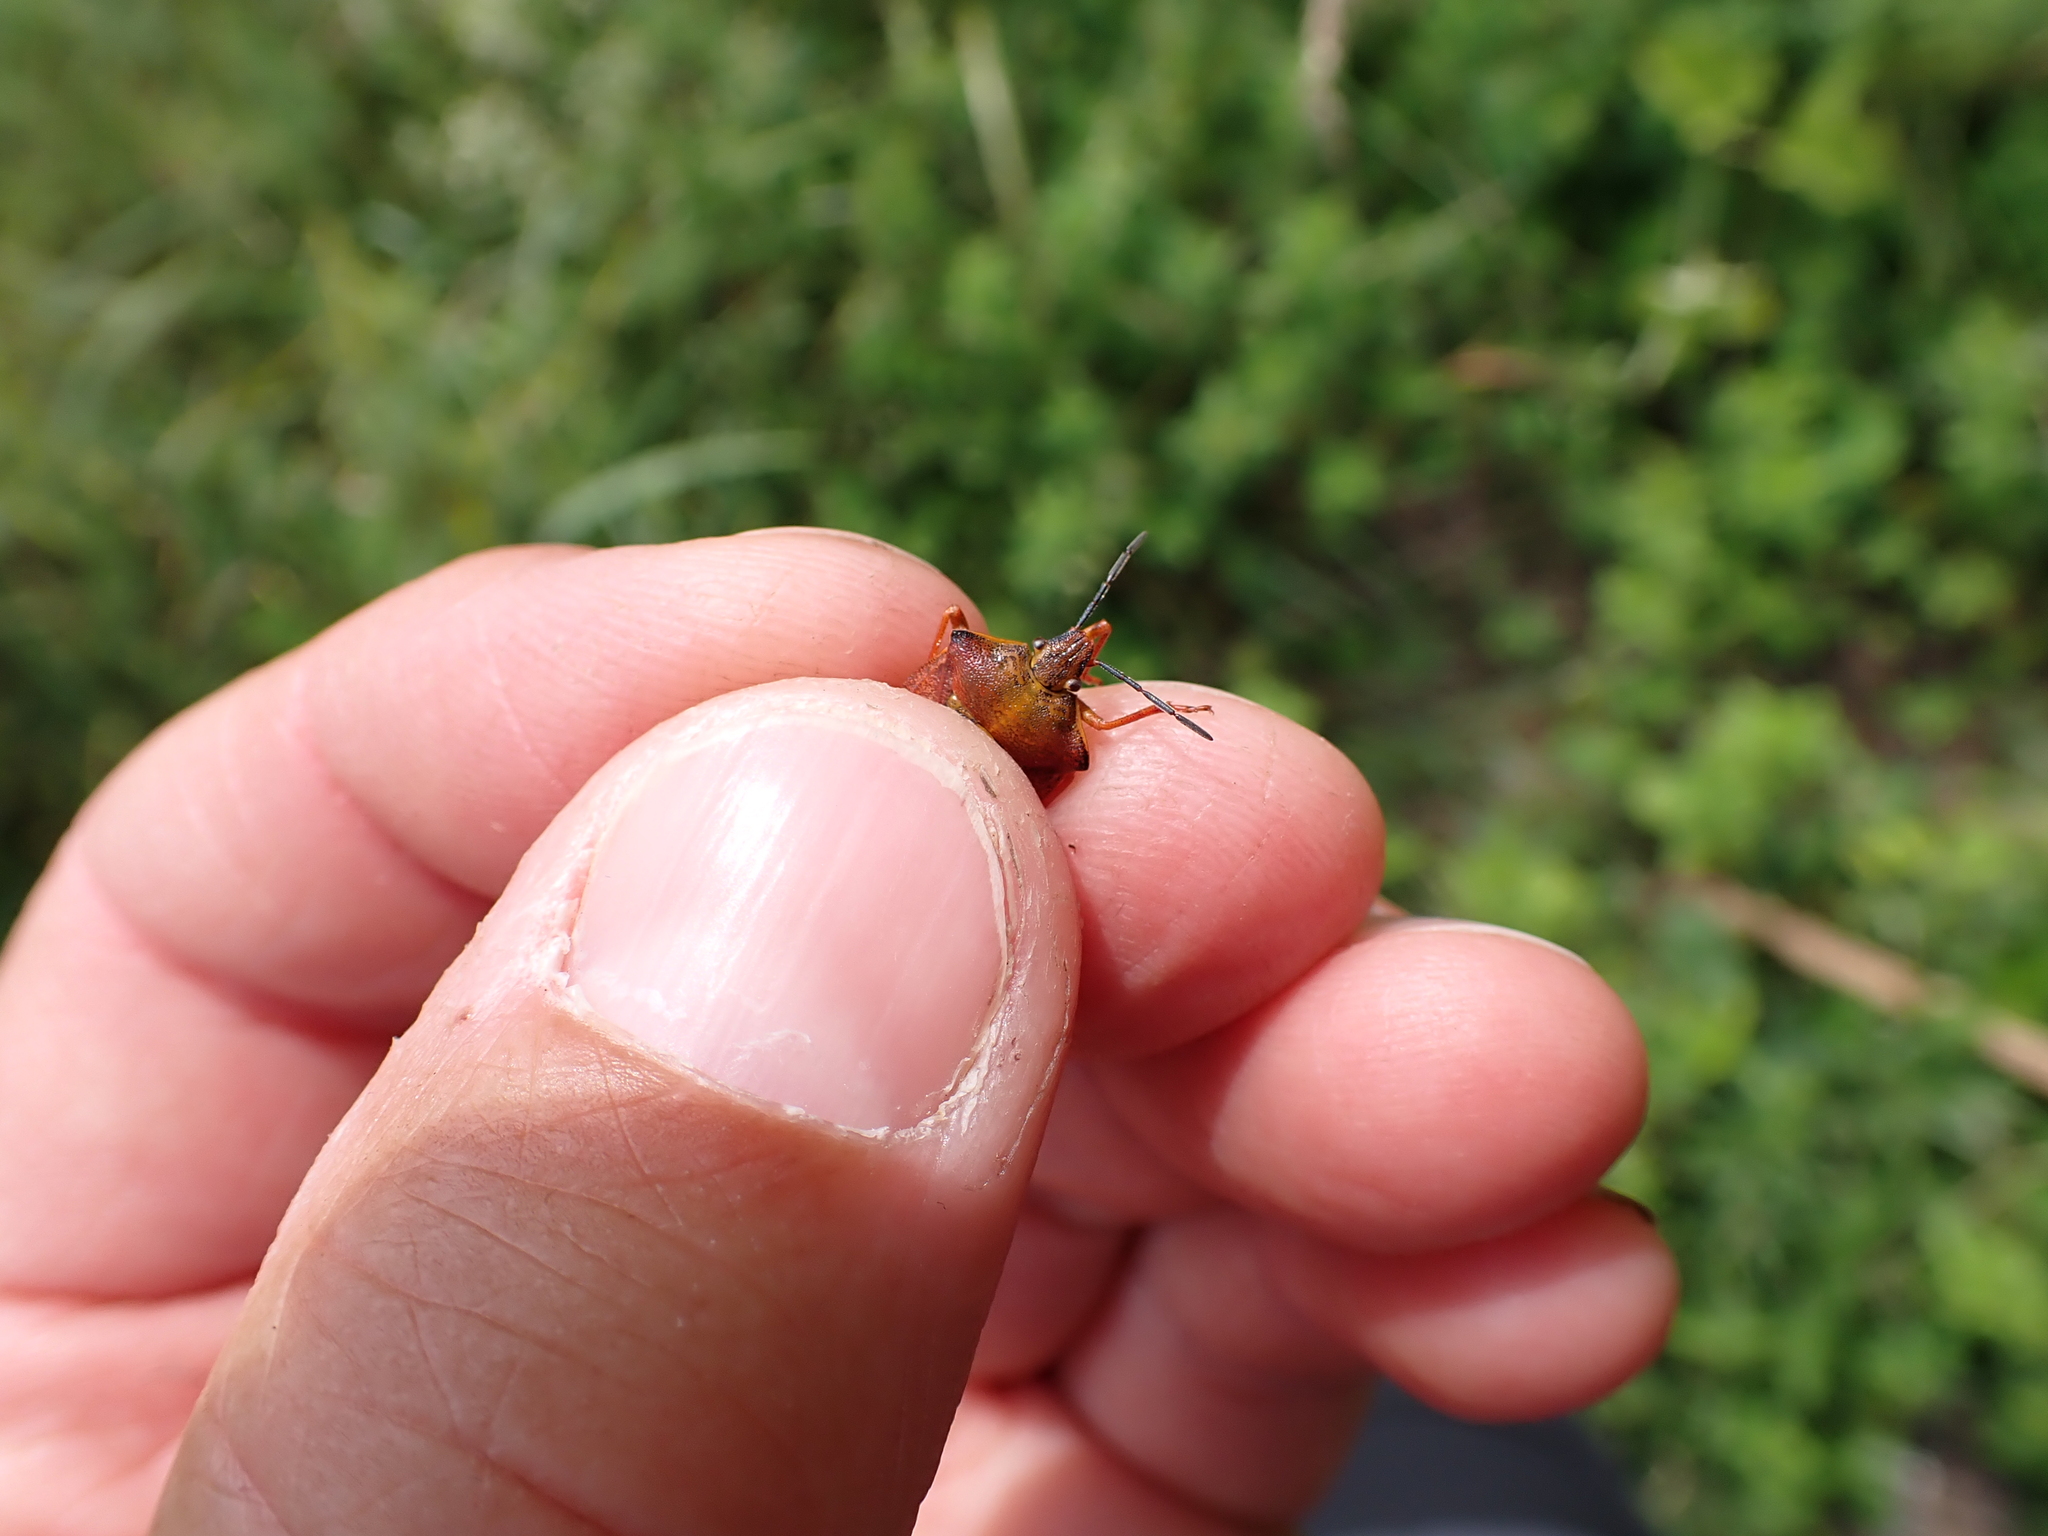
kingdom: Animalia
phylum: Arthropoda
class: Insecta
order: Hemiptera
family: Pentatomidae
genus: Carpocoris
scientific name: Carpocoris purpureipennis
